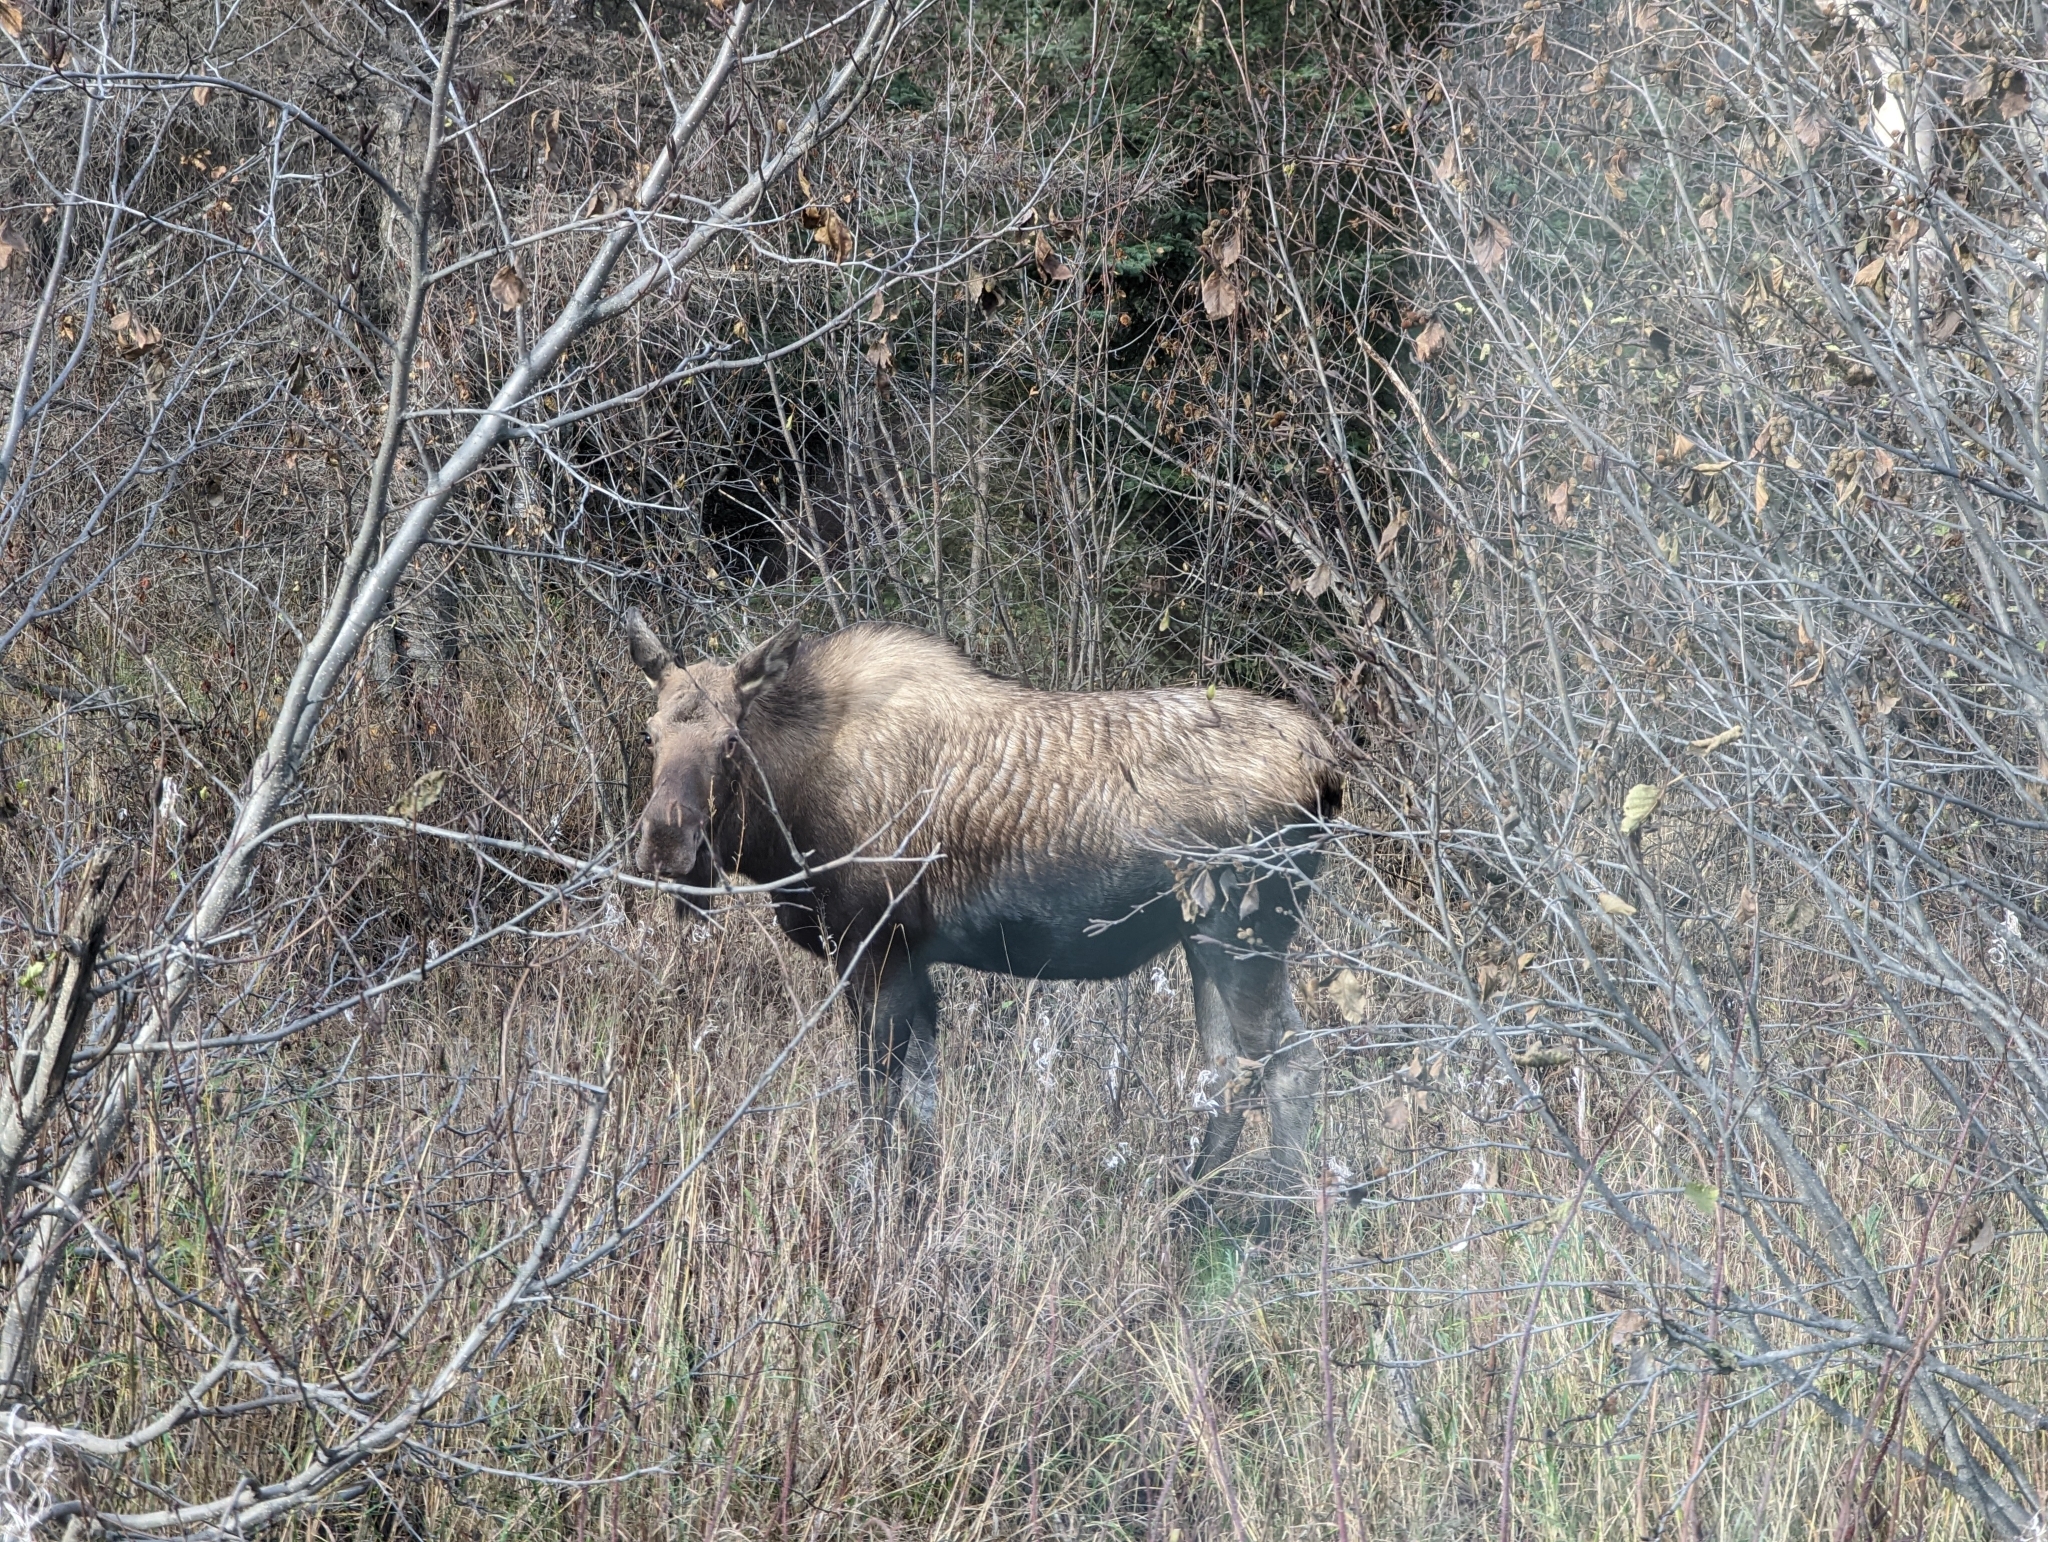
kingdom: Animalia
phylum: Chordata
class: Mammalia
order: Artiodactyla
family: Cervidae
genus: Alces
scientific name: Alces americanus
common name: Moose
